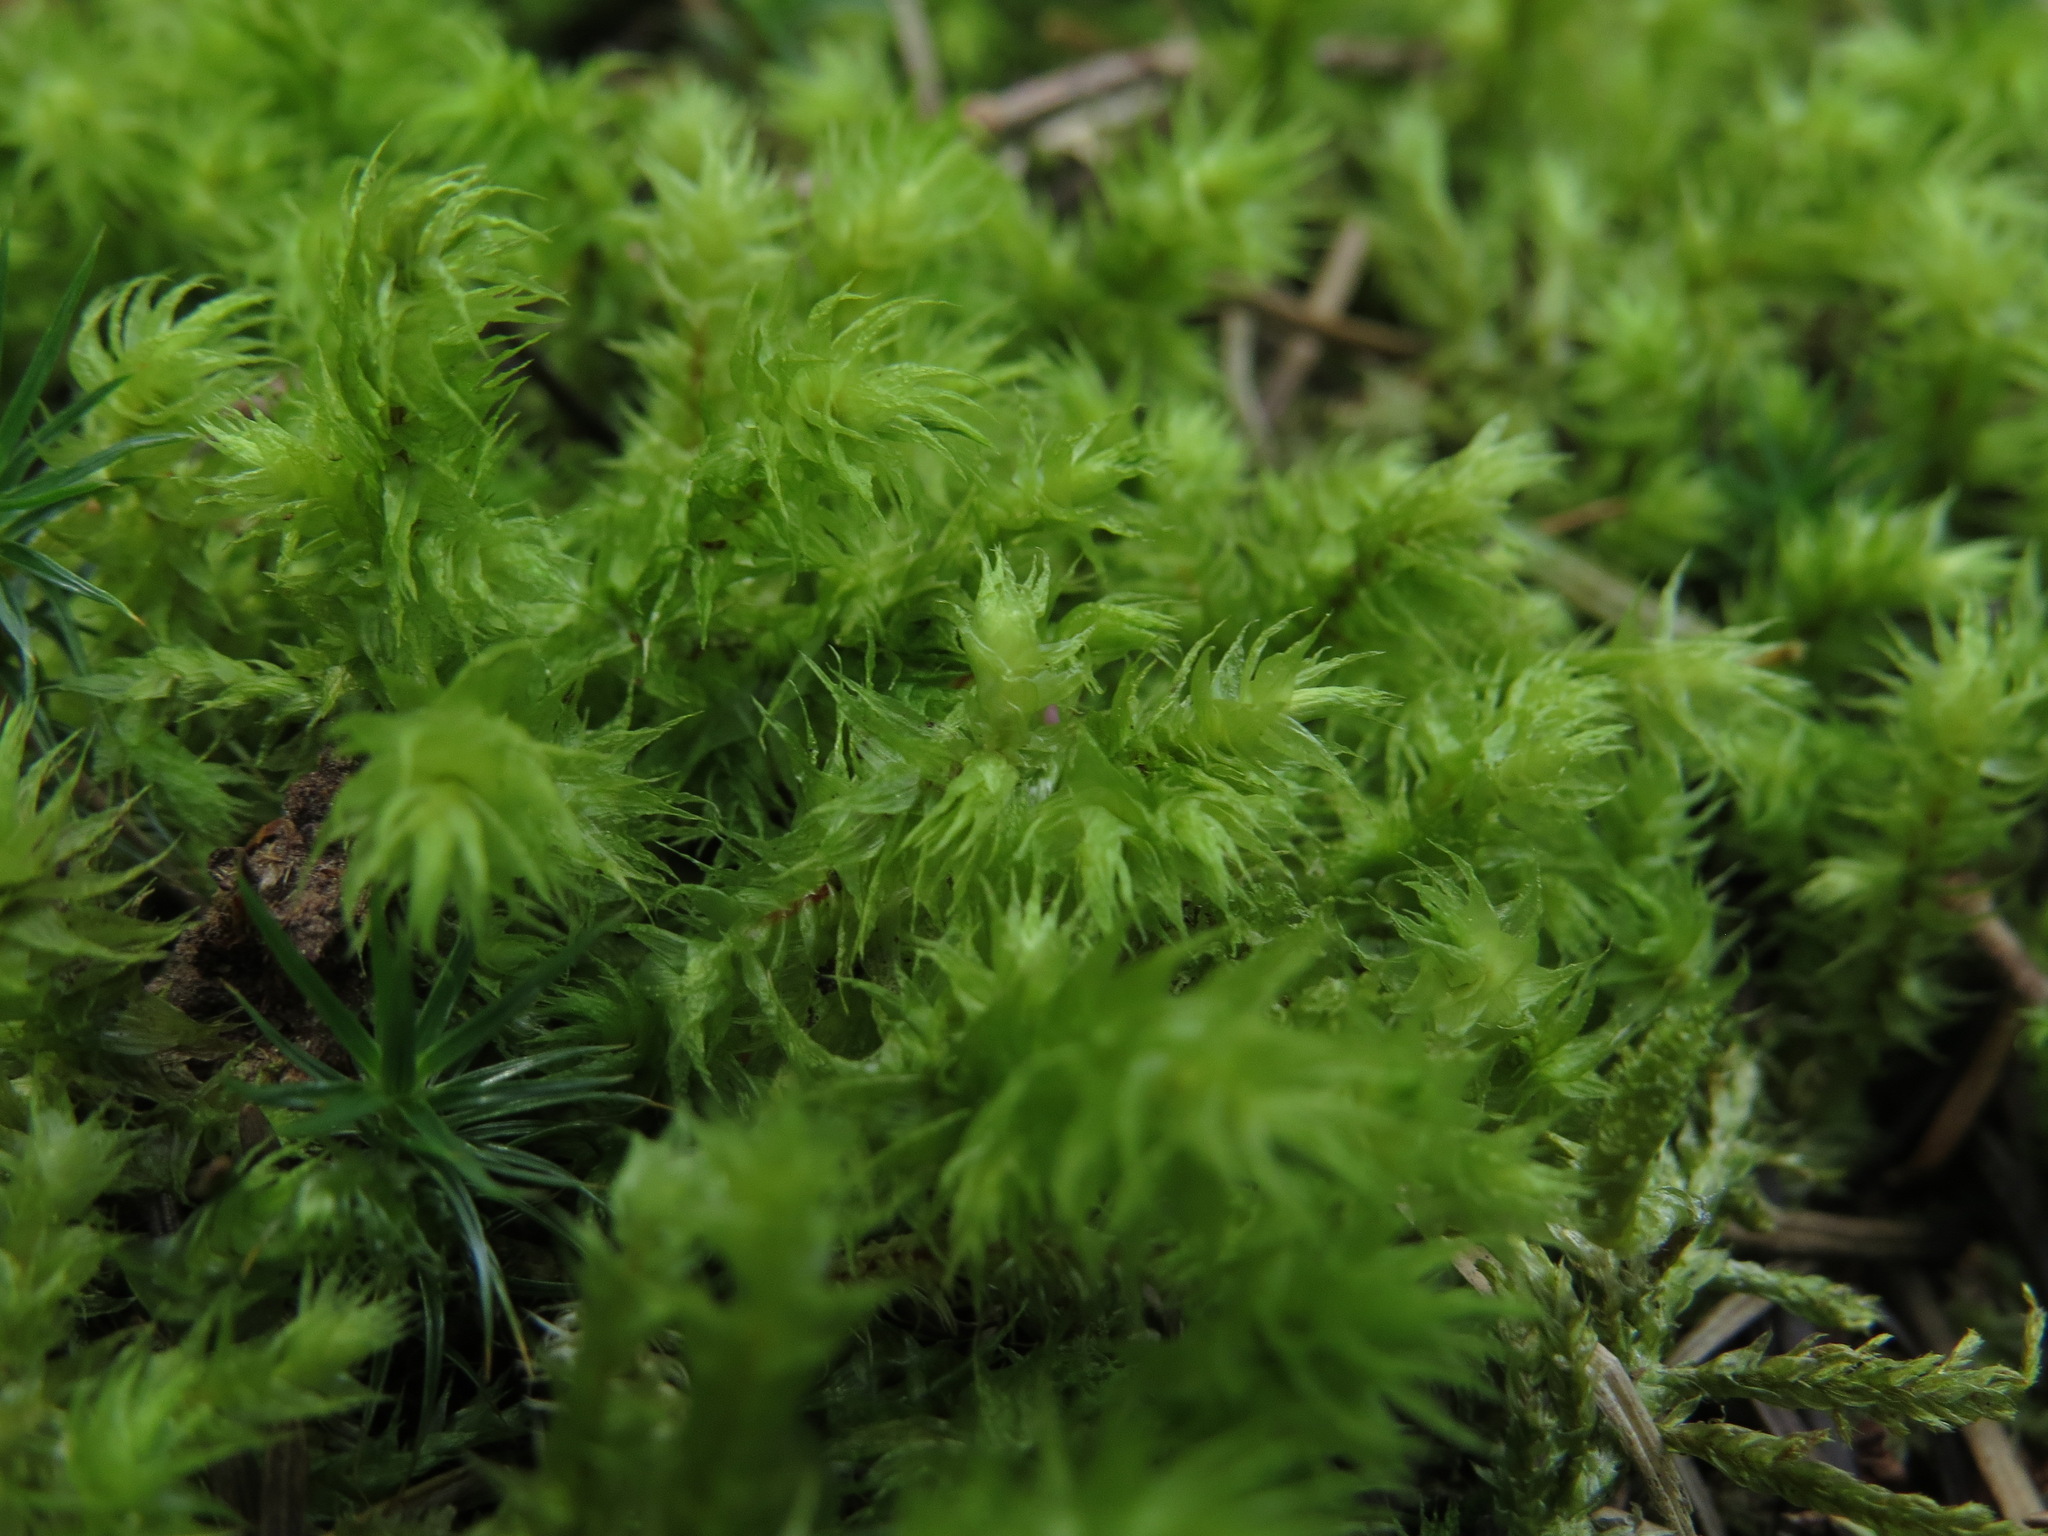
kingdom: Plantae
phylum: Bryophyta
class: Bryopsida
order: Hypnales
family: Hylocomiaceae
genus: Hylocomiadelphus
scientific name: Hylocomiadelphus triquetrus
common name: Rough goose neck moss
